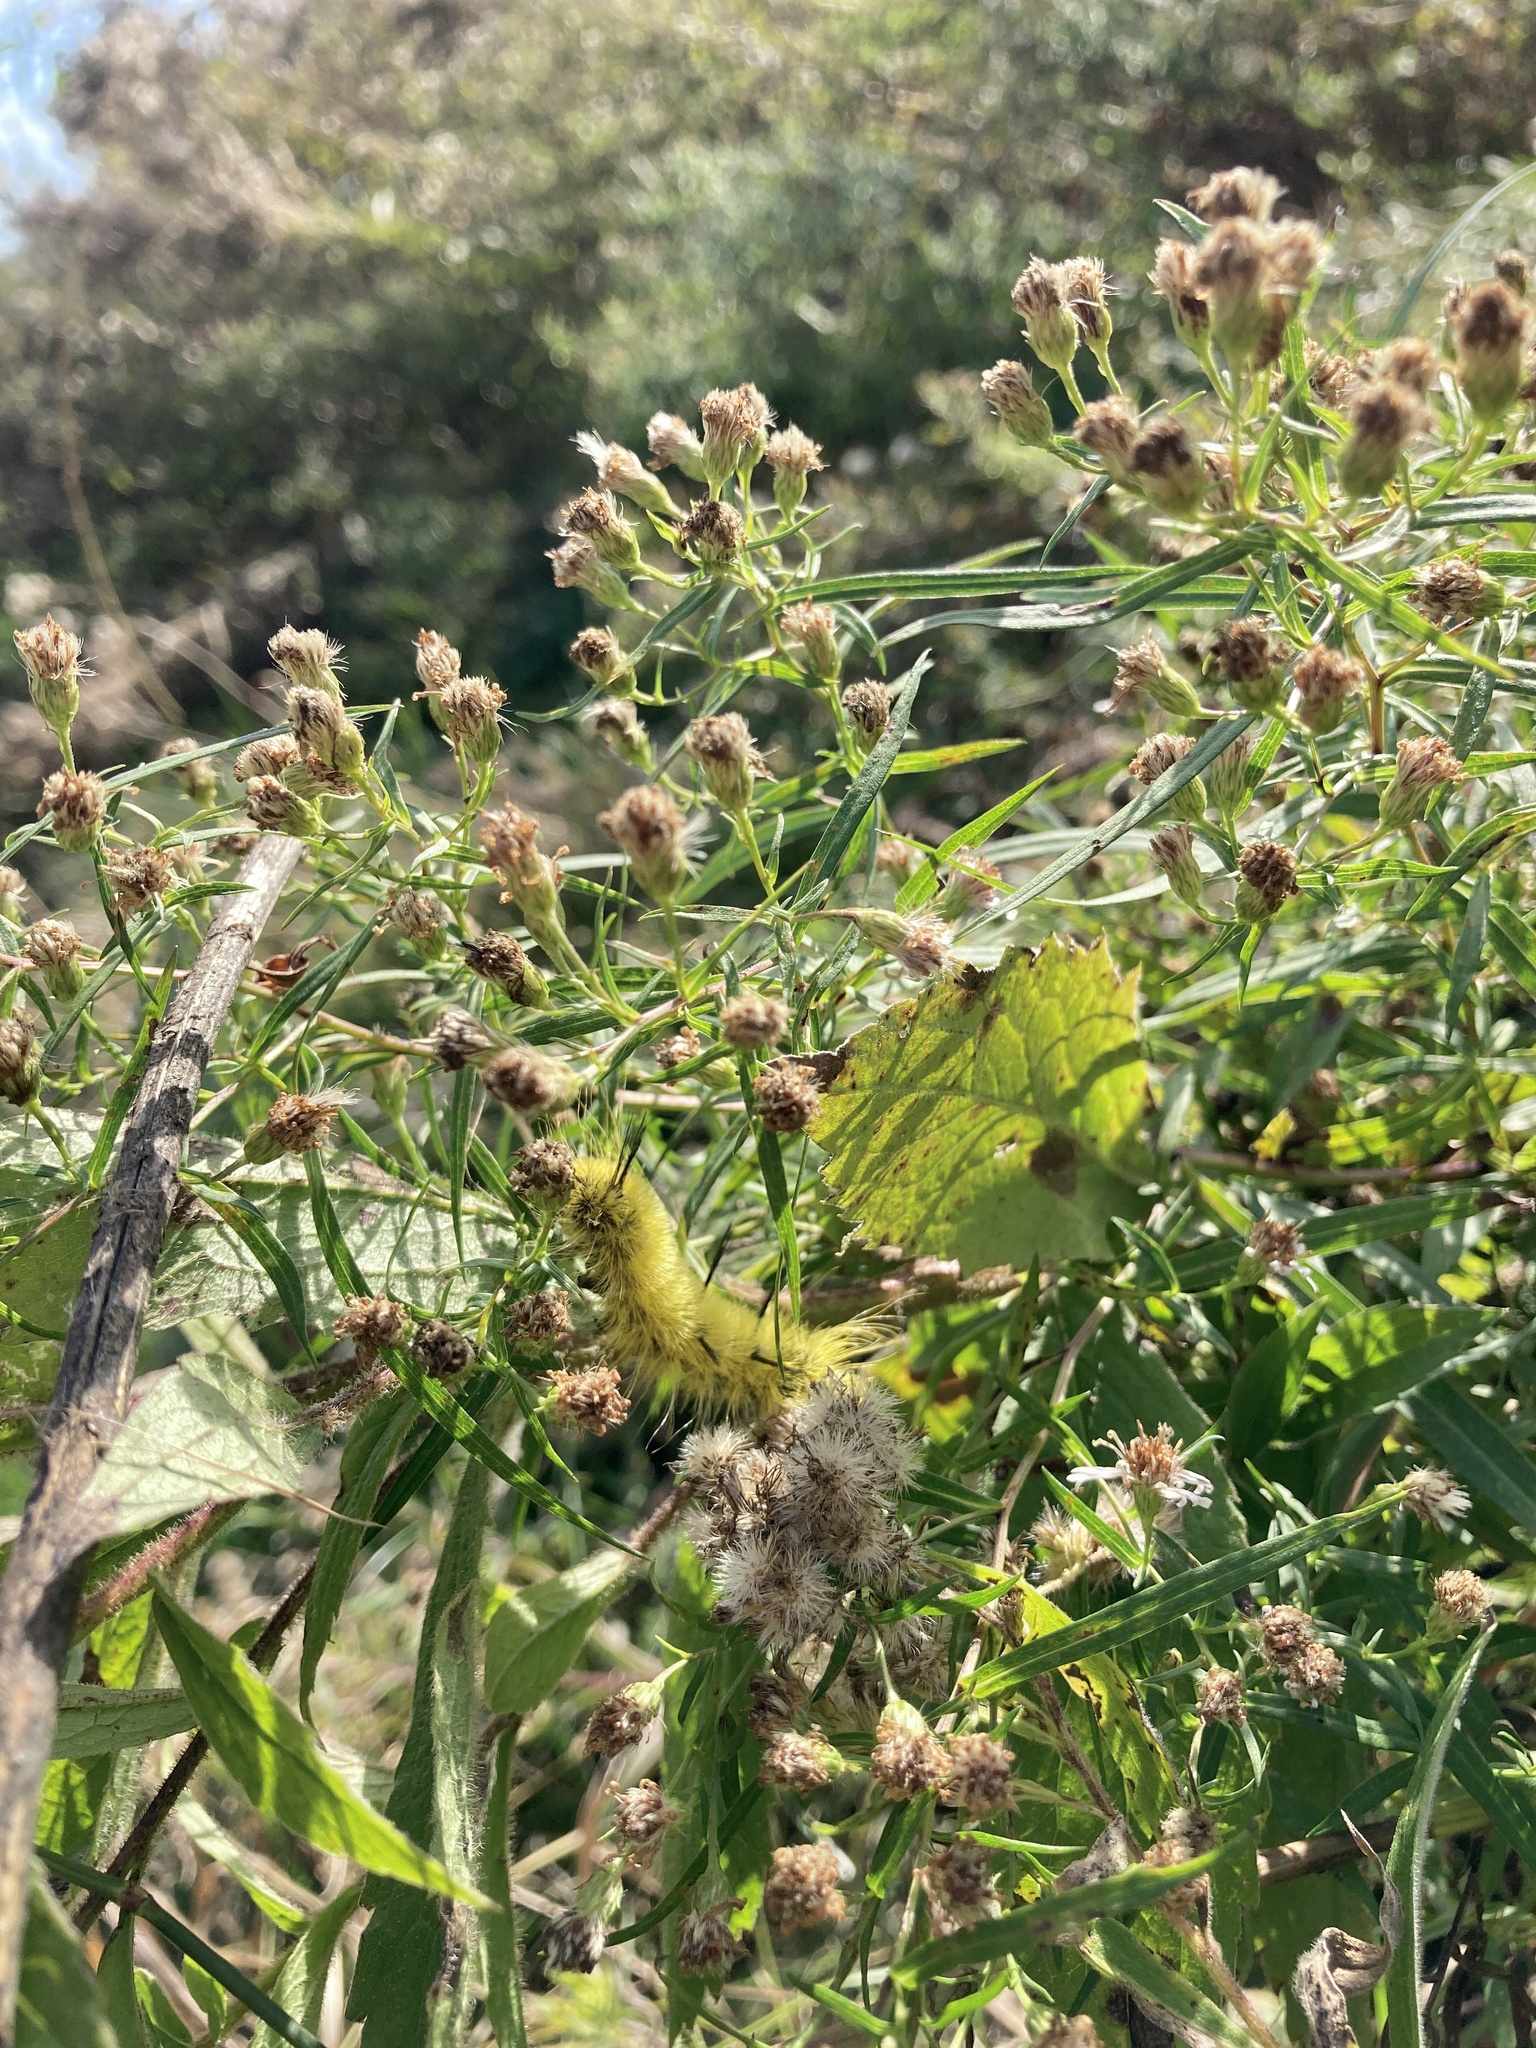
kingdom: Animalia
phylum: Arthropoda
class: Insecta
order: Lepidoptera
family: Noctuidae
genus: Acronicta
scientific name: Acronicta americana
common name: American dagger
